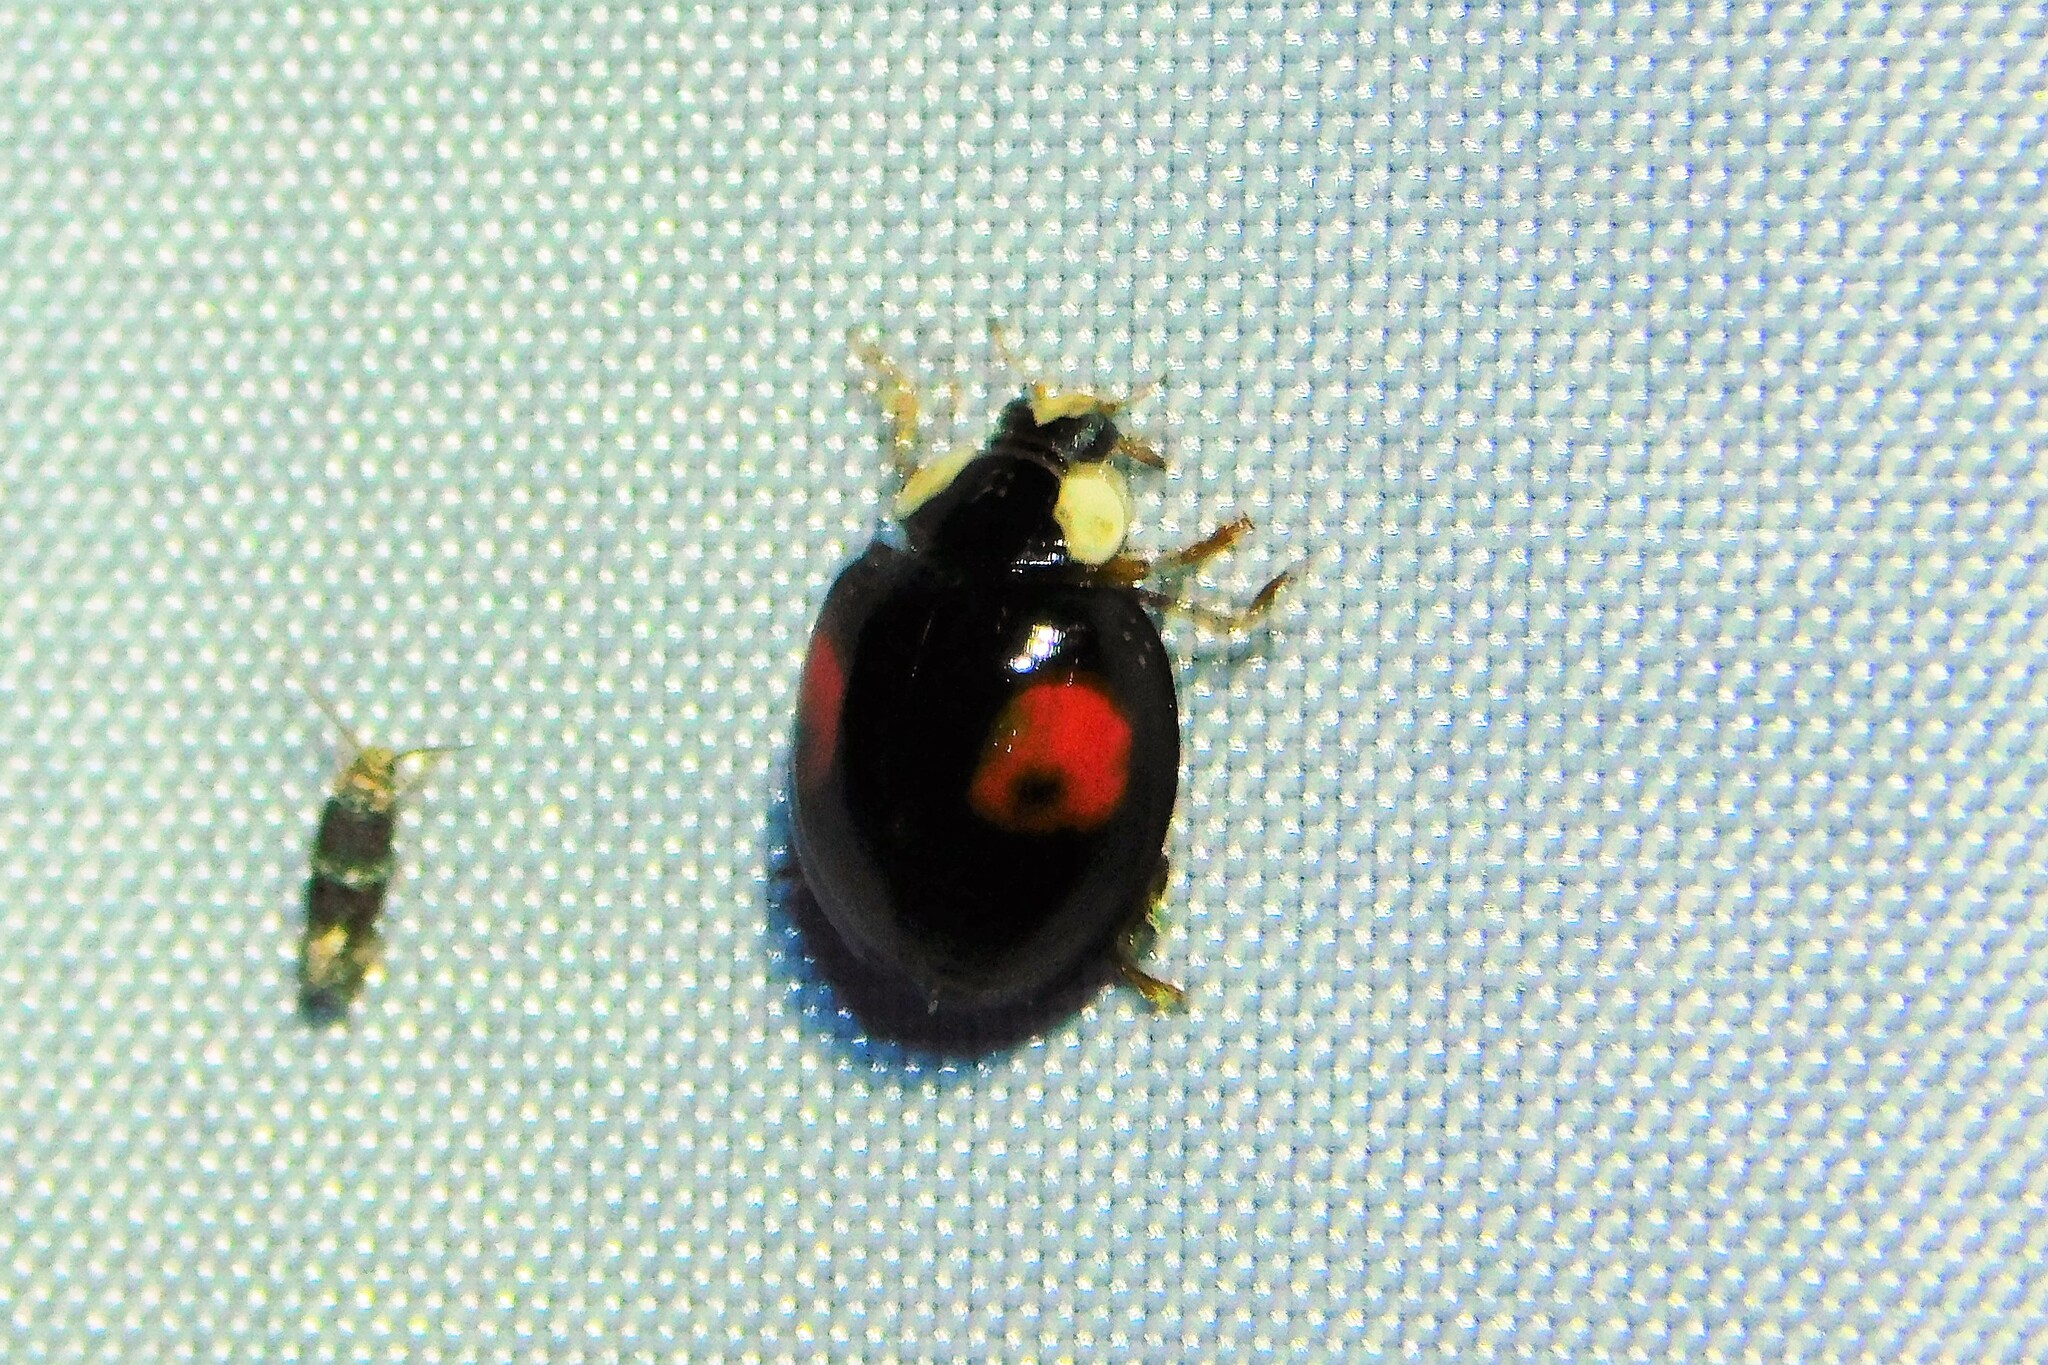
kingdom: Animalia
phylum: Arthropoda
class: Insecta
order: Coleoptera
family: Coccinellidae
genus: Harmonia
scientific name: Harmonia axyridis
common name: Harlequin ladybird
